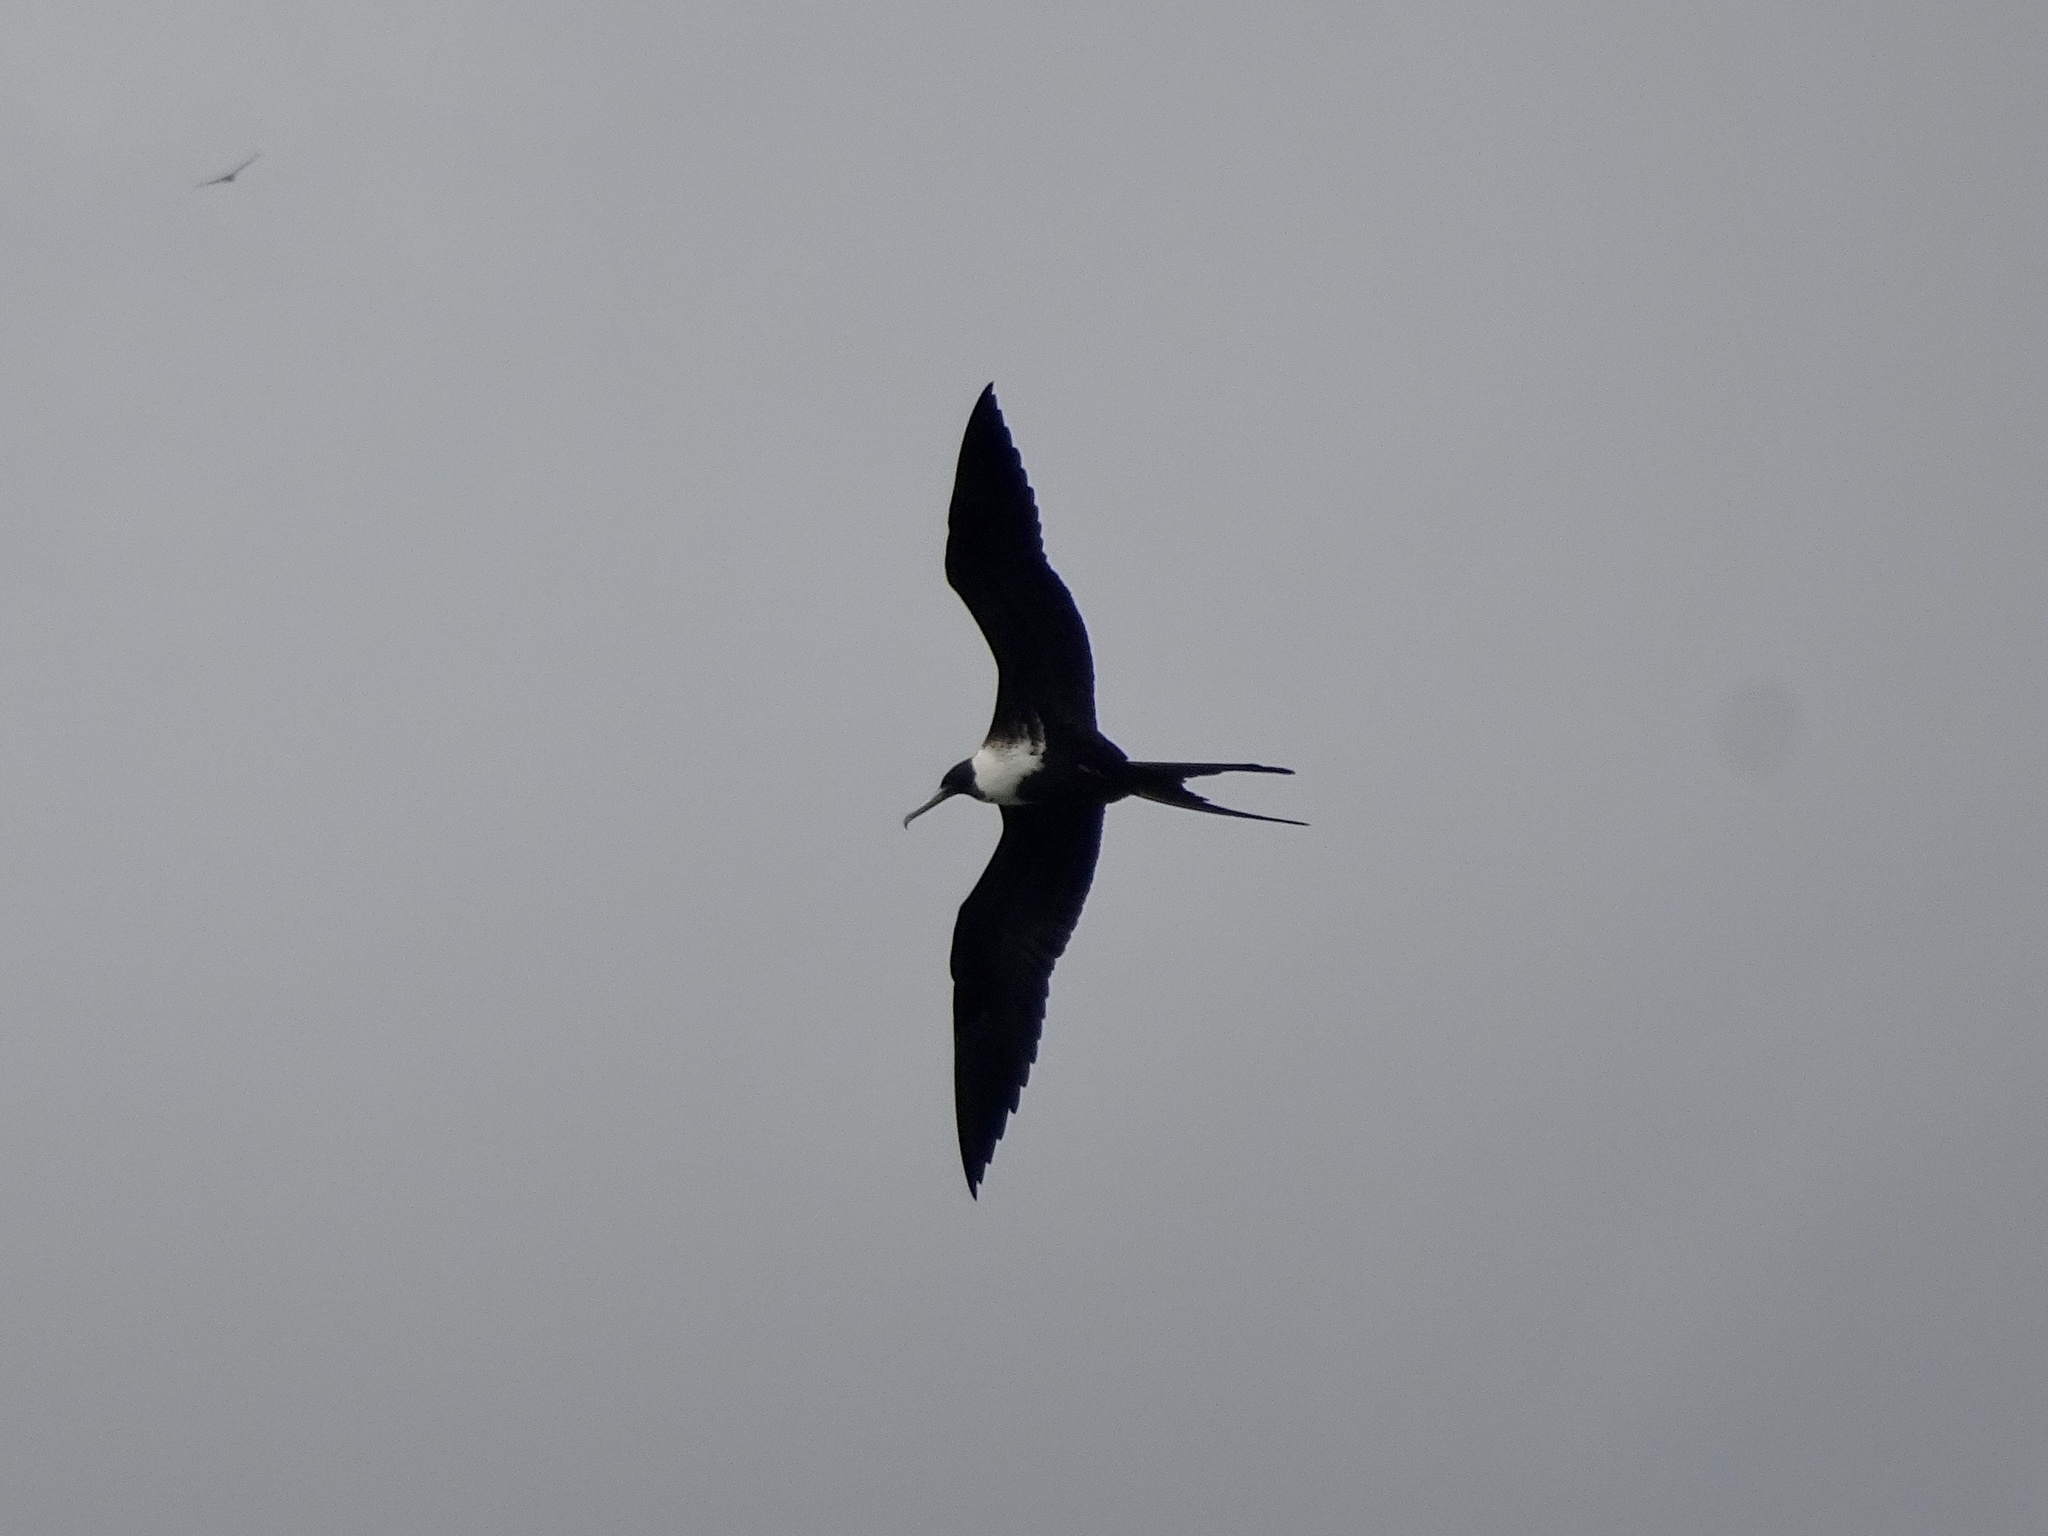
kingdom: Animalia
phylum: Chordata
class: Aves
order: Suliformes
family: Fregatidae
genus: Fregata
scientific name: Fregata magnificens
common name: Magnificent frigatebird
